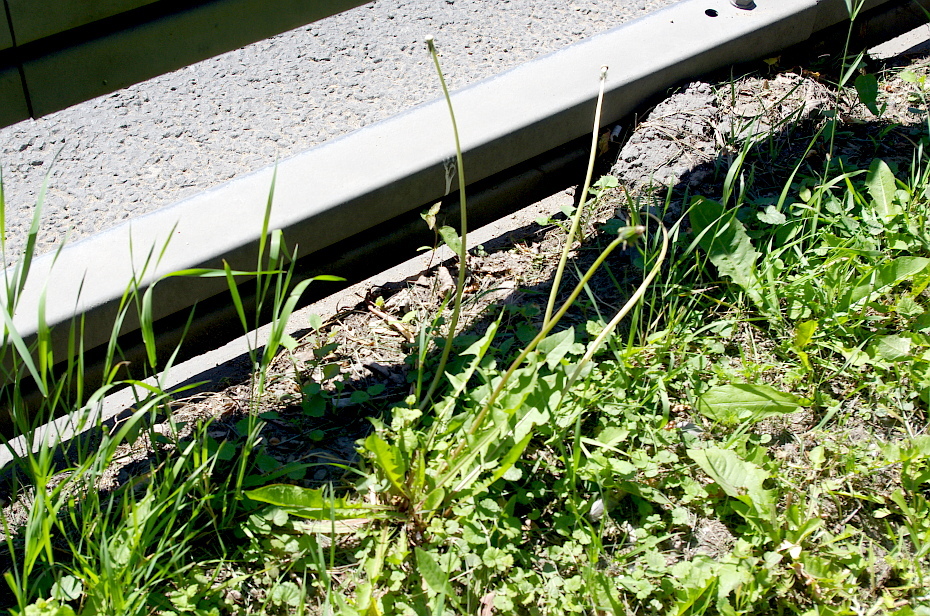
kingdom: Plantae
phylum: Tracheophyta
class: Magnoliopsida
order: Asterales
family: Asteraceae
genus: Taraxacum
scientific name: Taraxacum officinale
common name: Common dandelion
